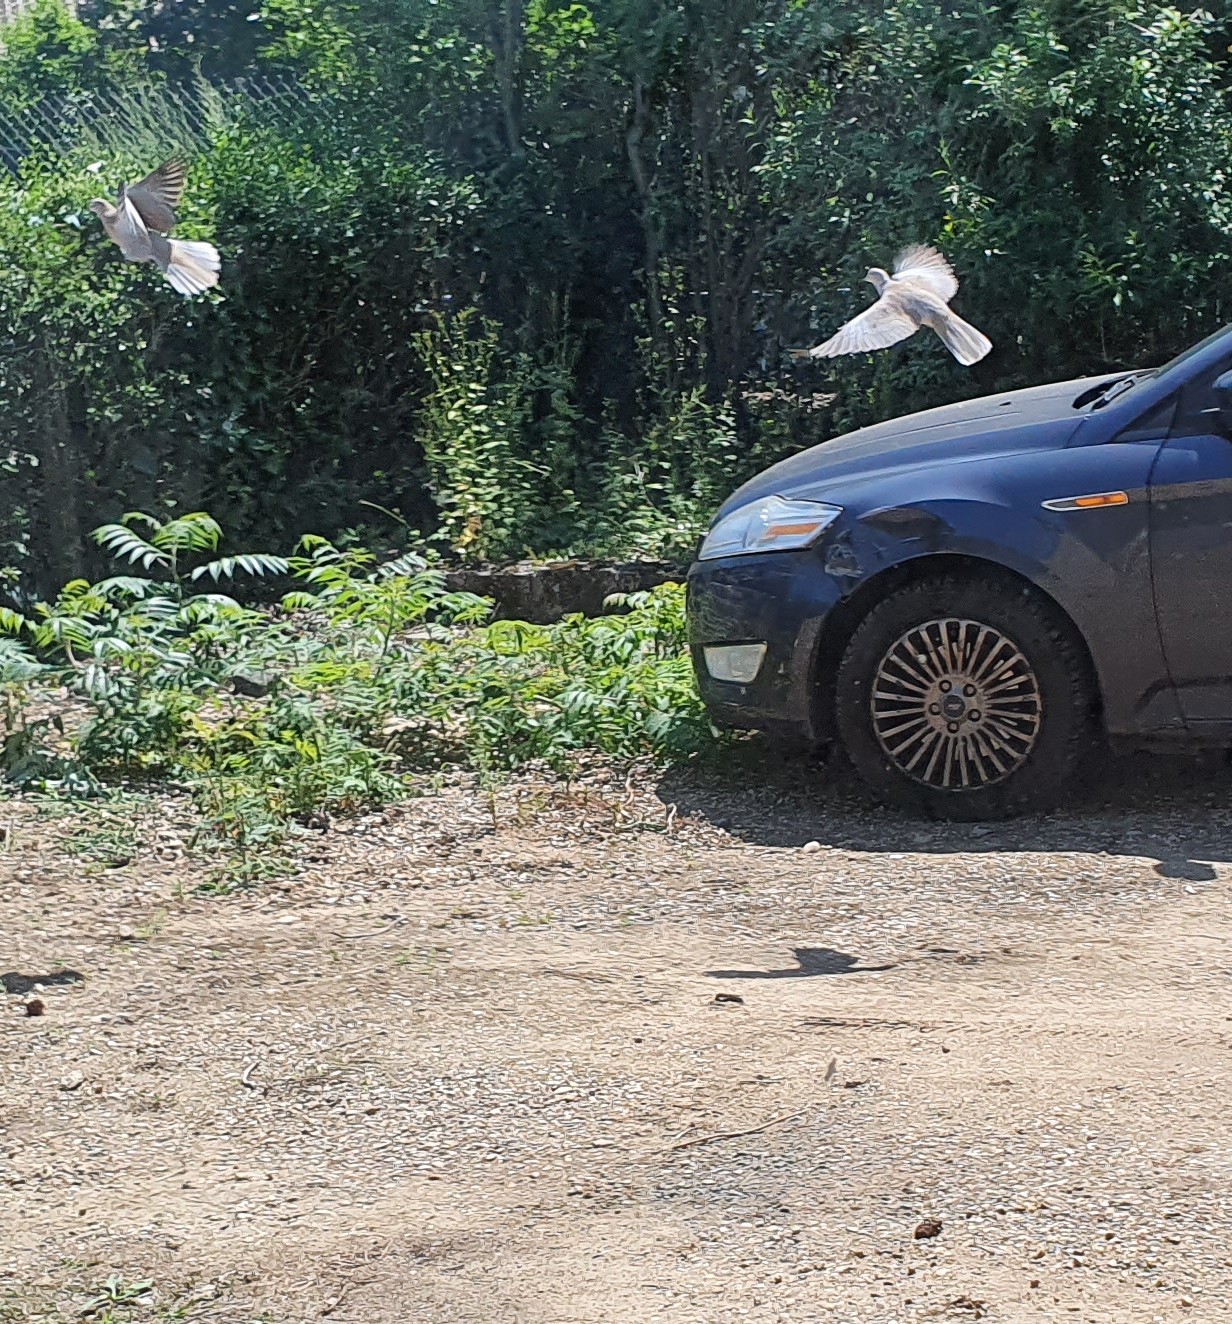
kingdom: Animalia
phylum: Chordata
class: Aves
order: Columbiformes
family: Columbidae
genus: Streptopelia
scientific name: Streptopelia decaocto
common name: Eurasian collared dove
